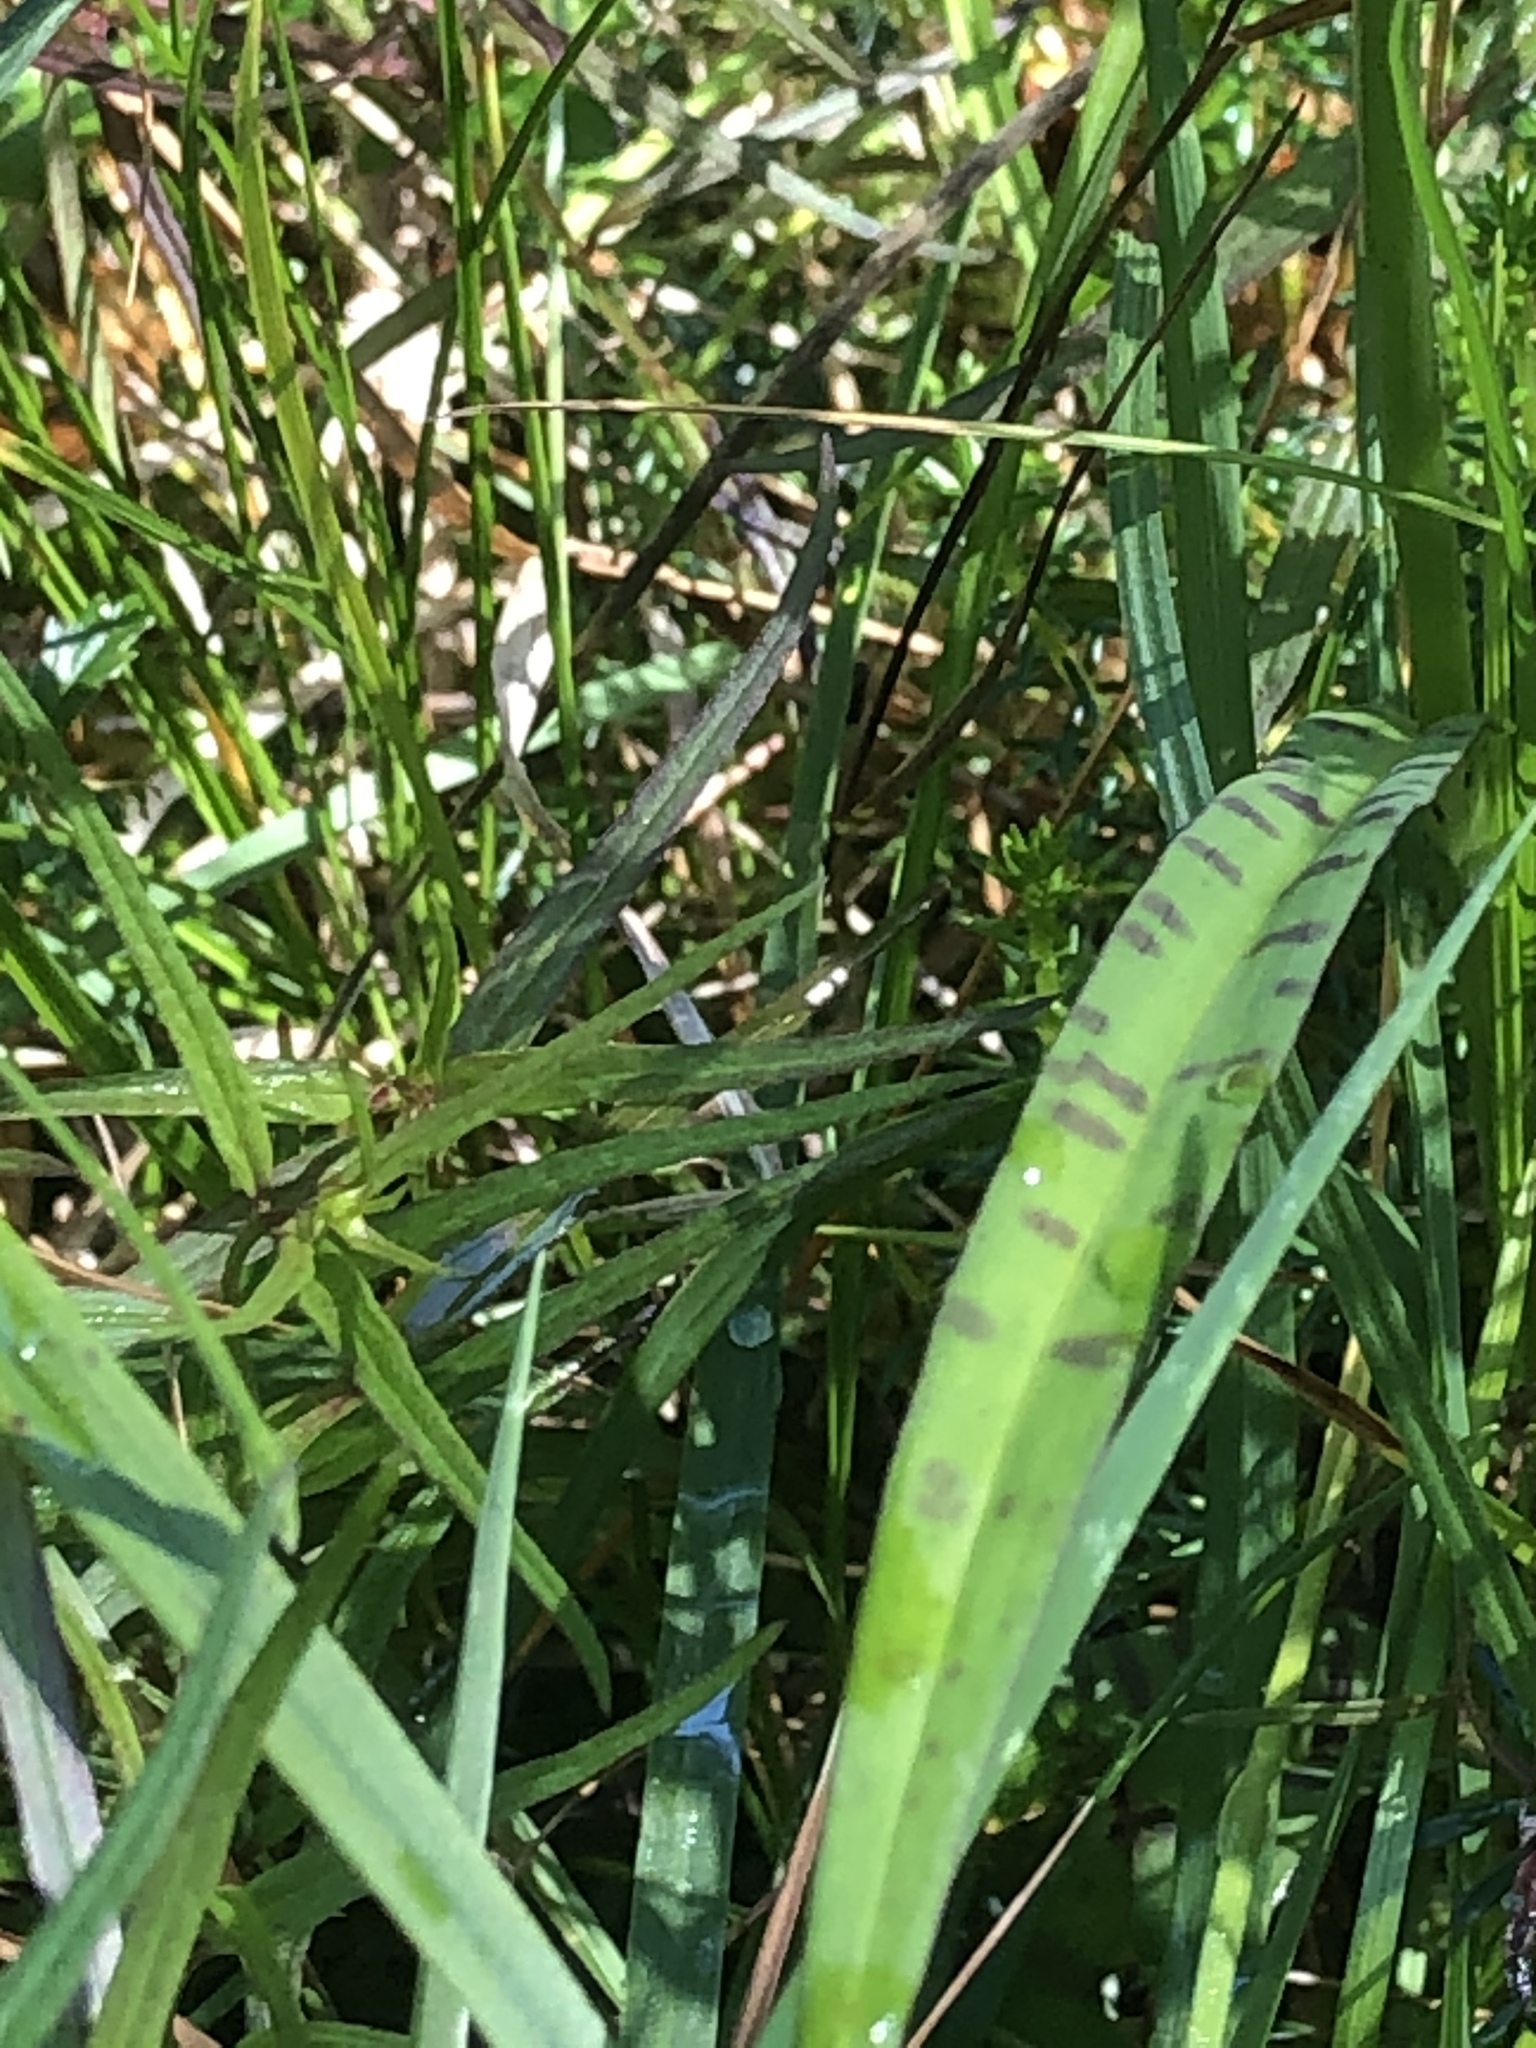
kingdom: Plantae
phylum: Tracheophyta
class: Liliopsida
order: Asparagales
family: Orchidaceae
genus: Dactylorhiza
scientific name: Dactylorhiza maculata
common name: Heath spotted-orchid
